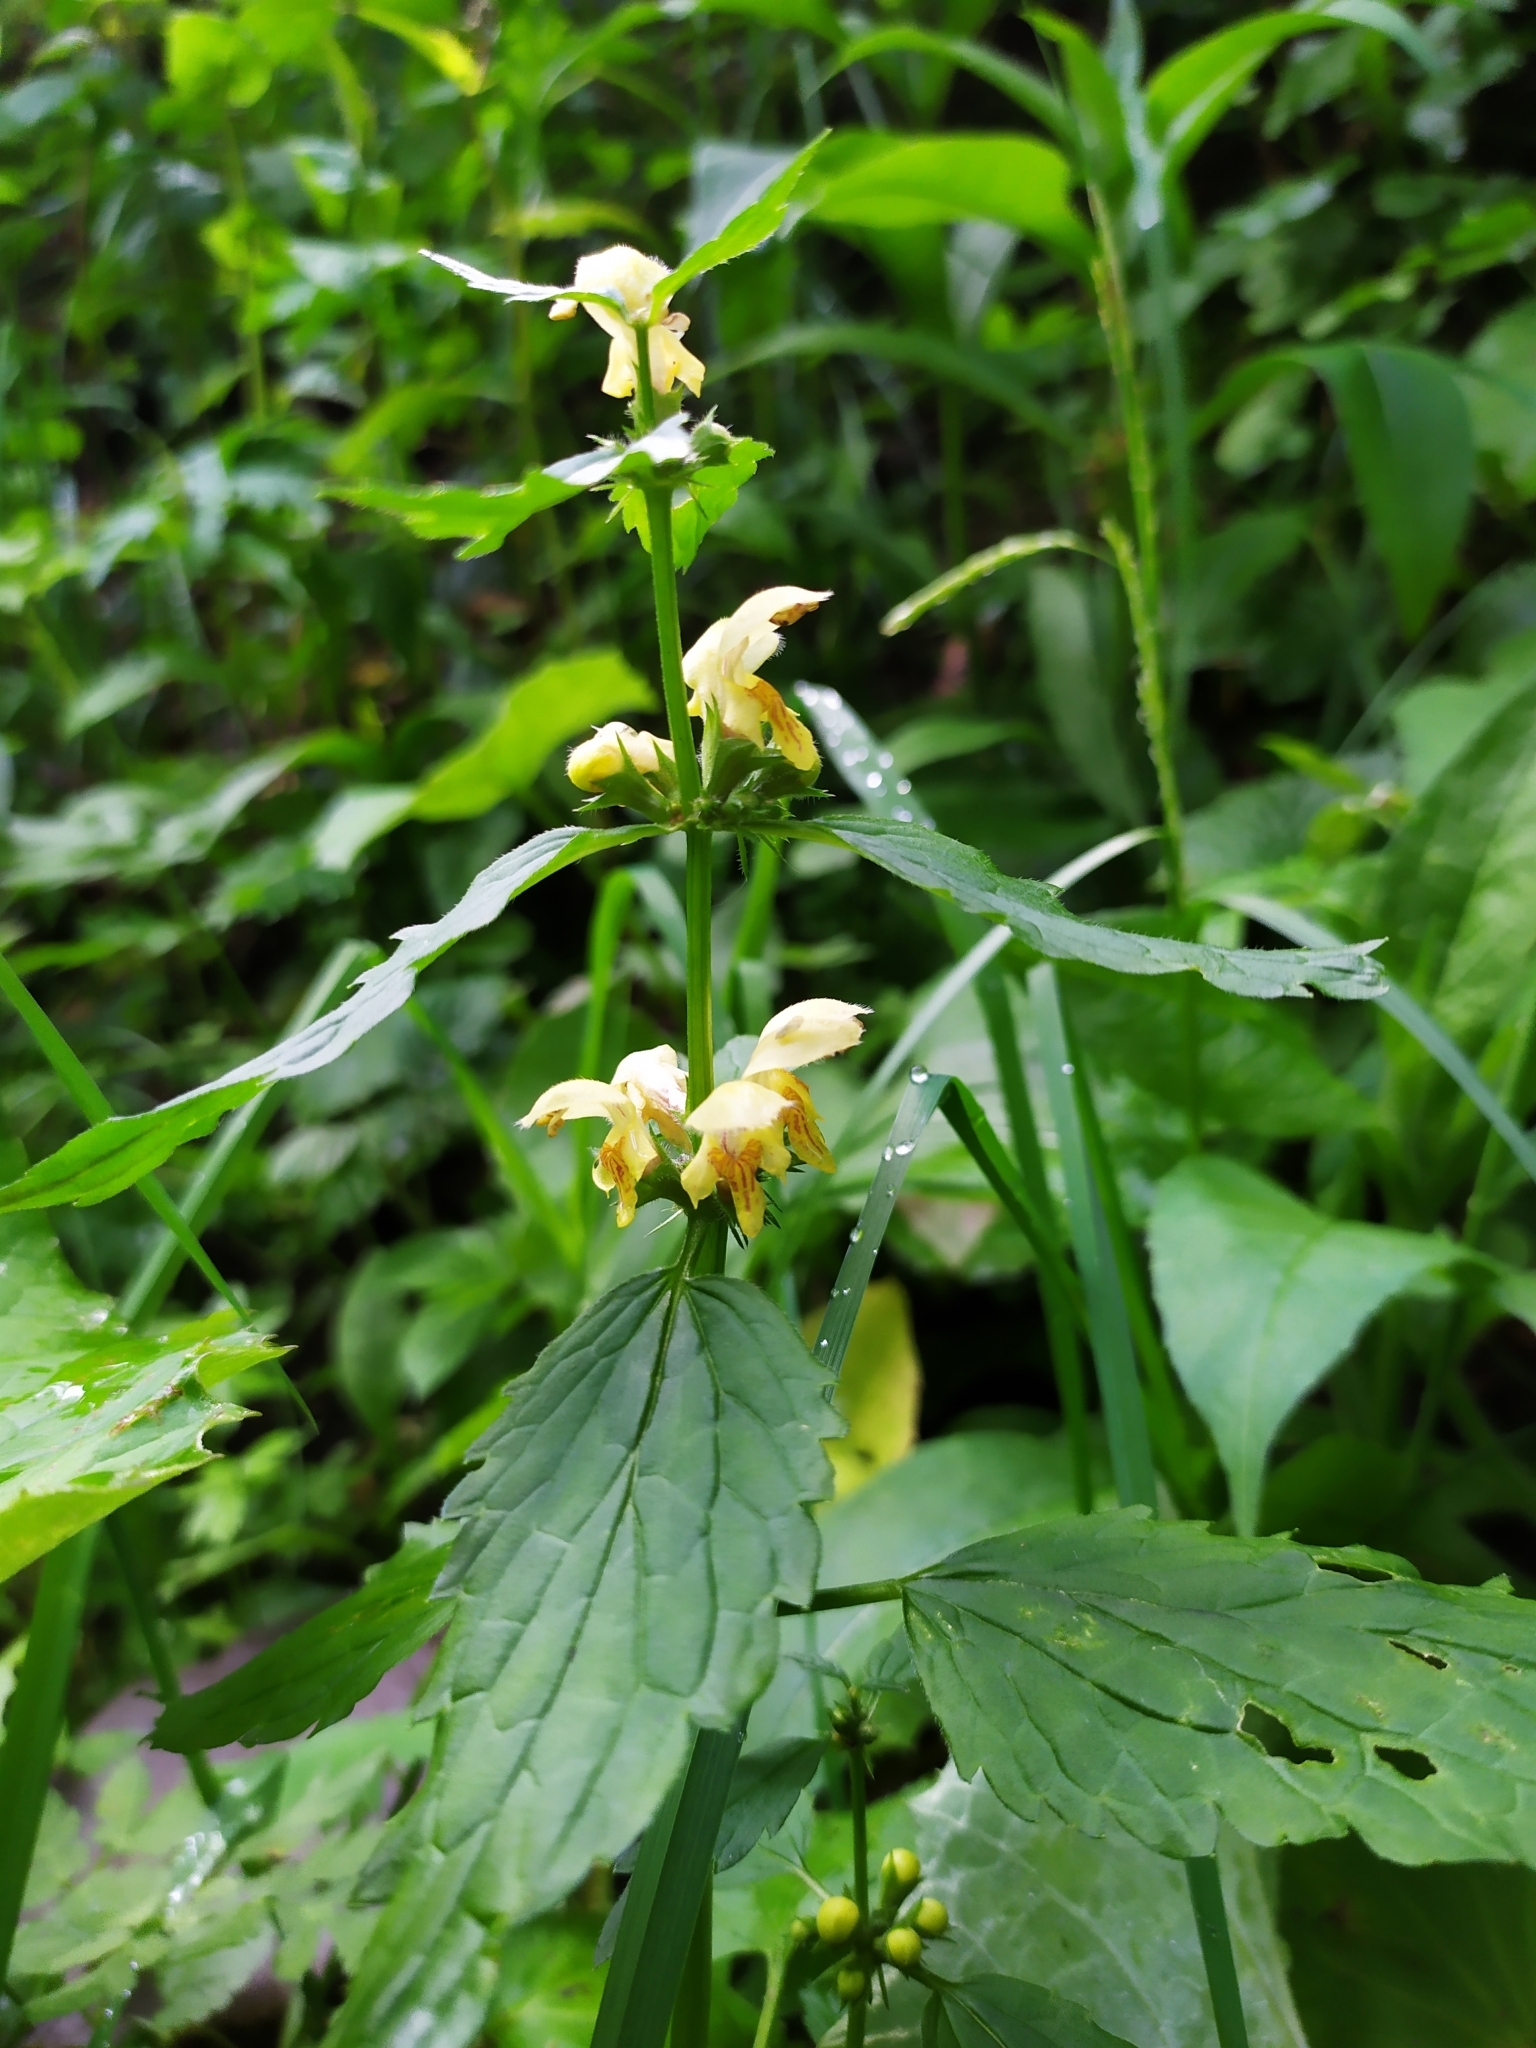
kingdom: Plantae
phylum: Tracheophyta
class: Magnoliopsida
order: Lamiales
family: Lamiaceae
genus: Lamium
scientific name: Lamium galeobdolon
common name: Yellow archangel
